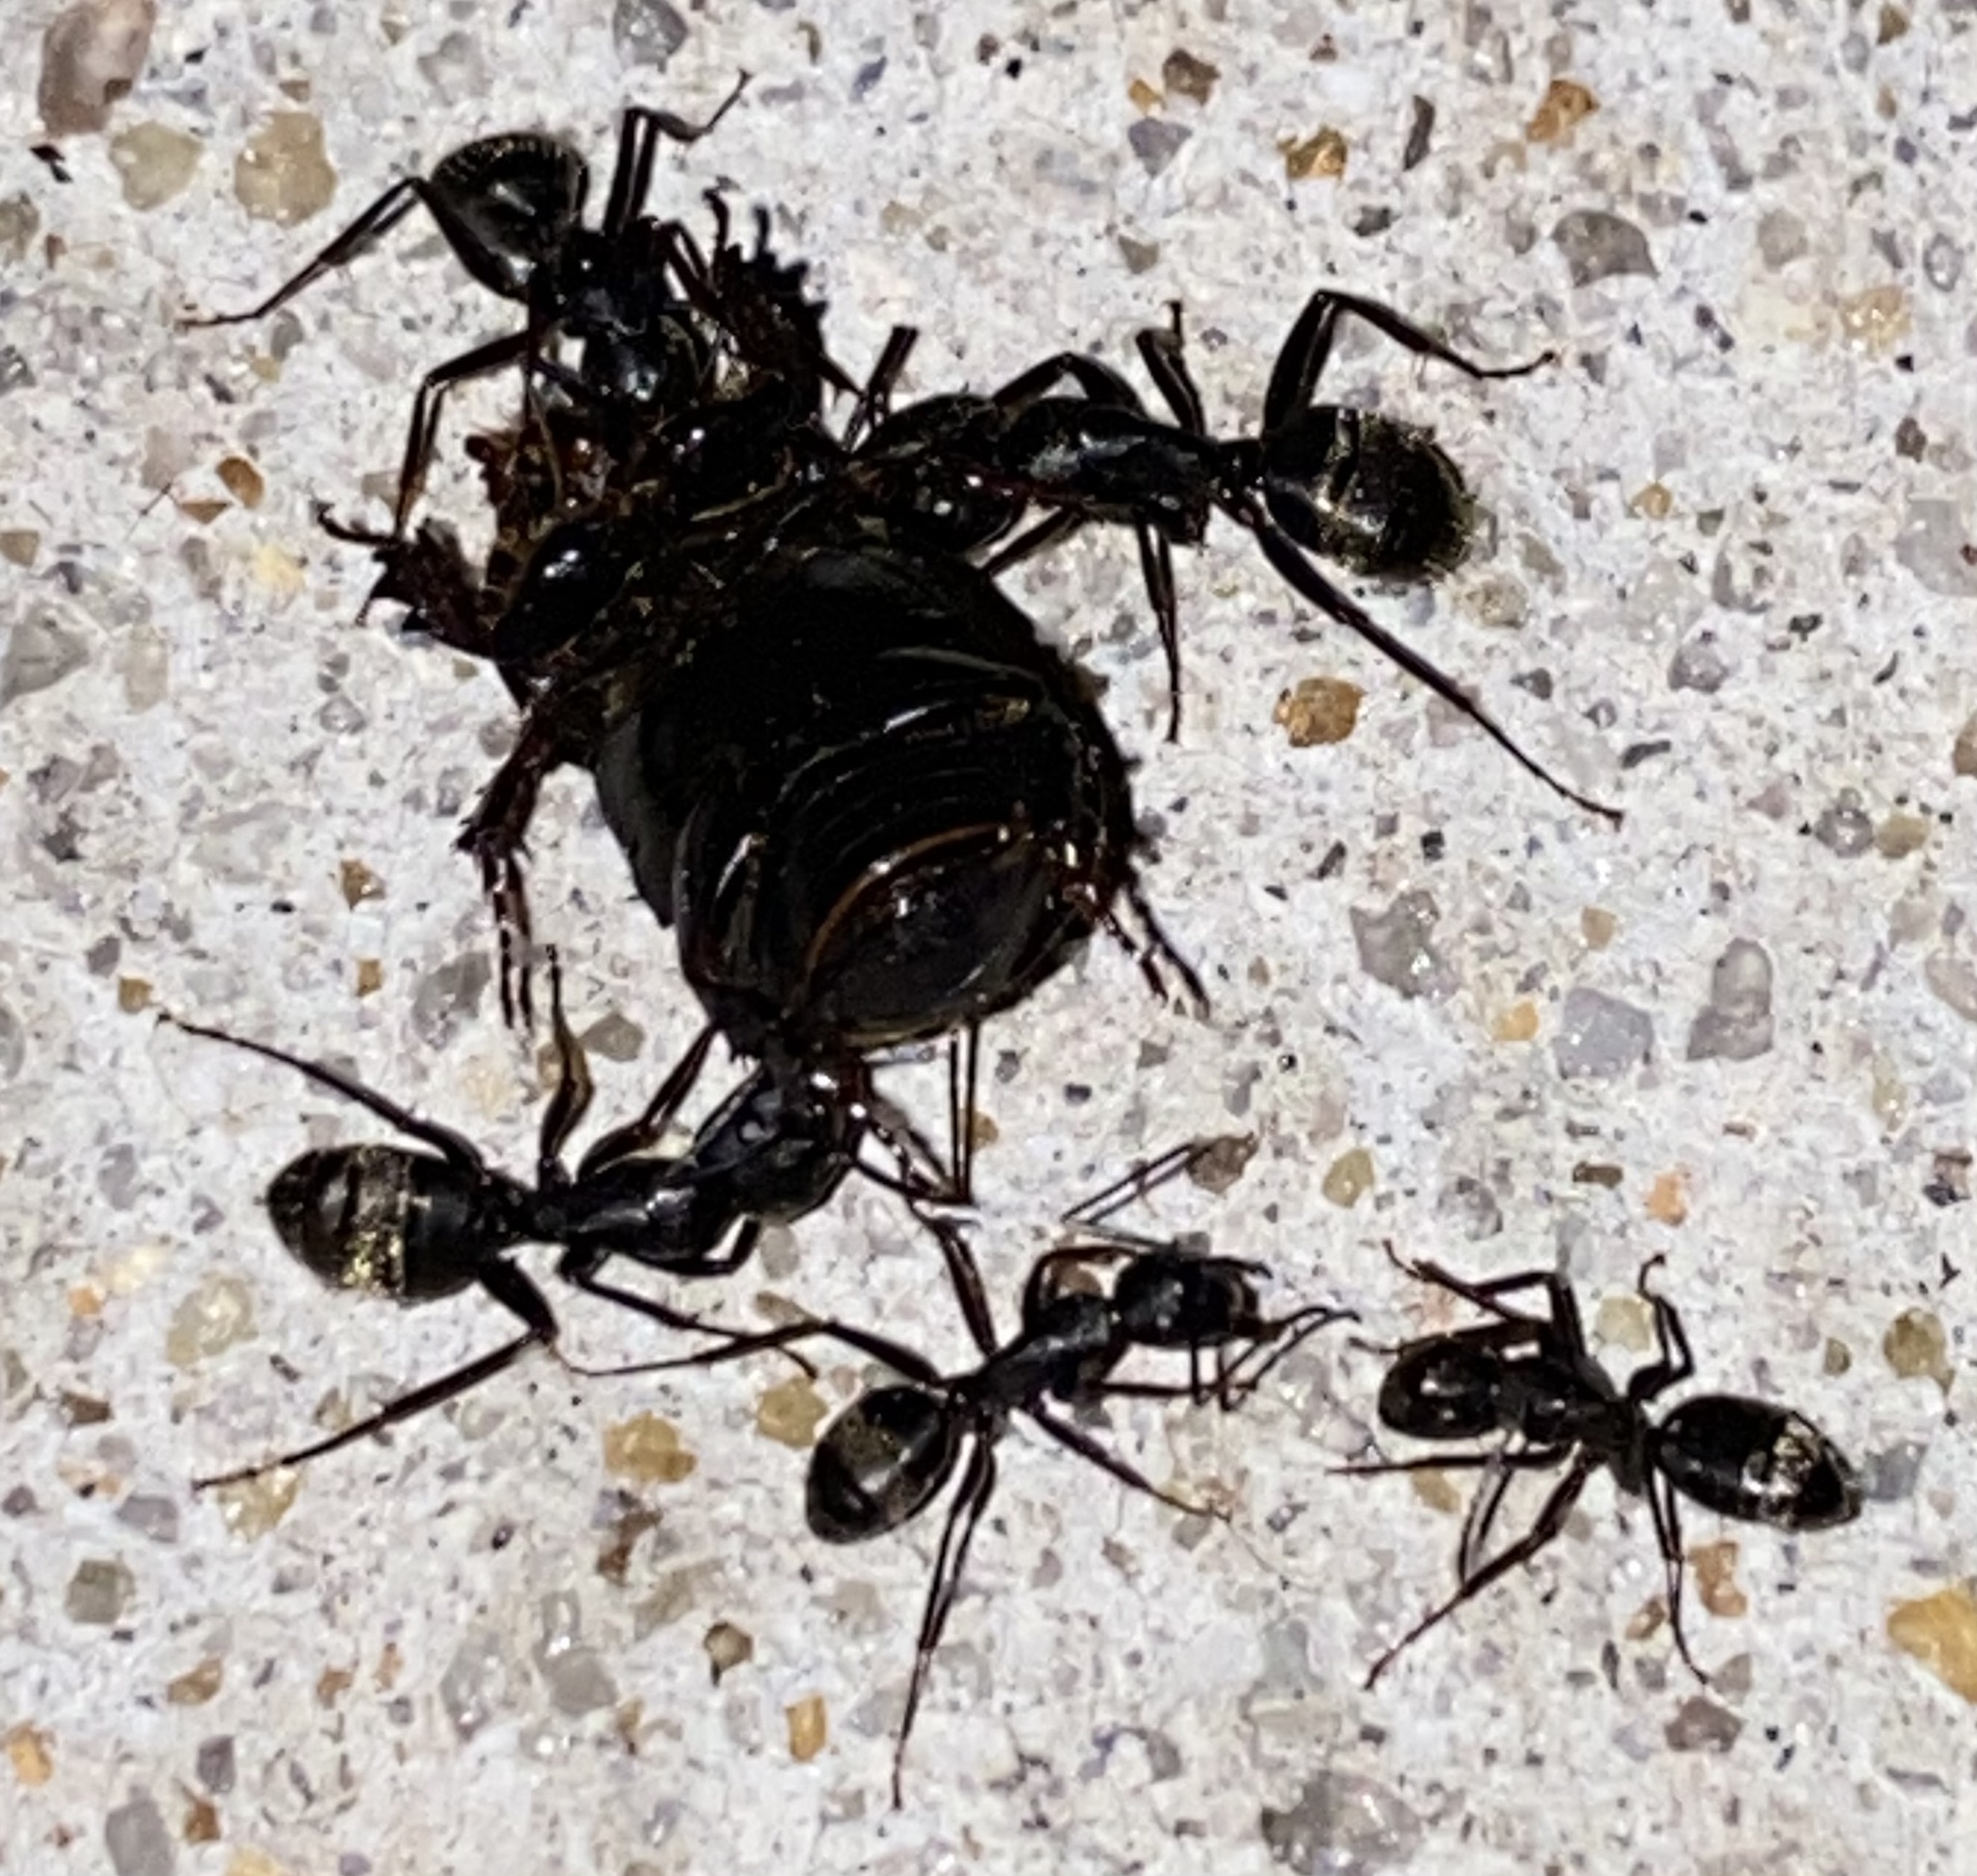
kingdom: Animalia
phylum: Arthropoda
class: Insecta
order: Hymenoptera
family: Formicidae
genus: Camponotus
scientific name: Camponotus pennsylvanicus
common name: Black carpenter ant
